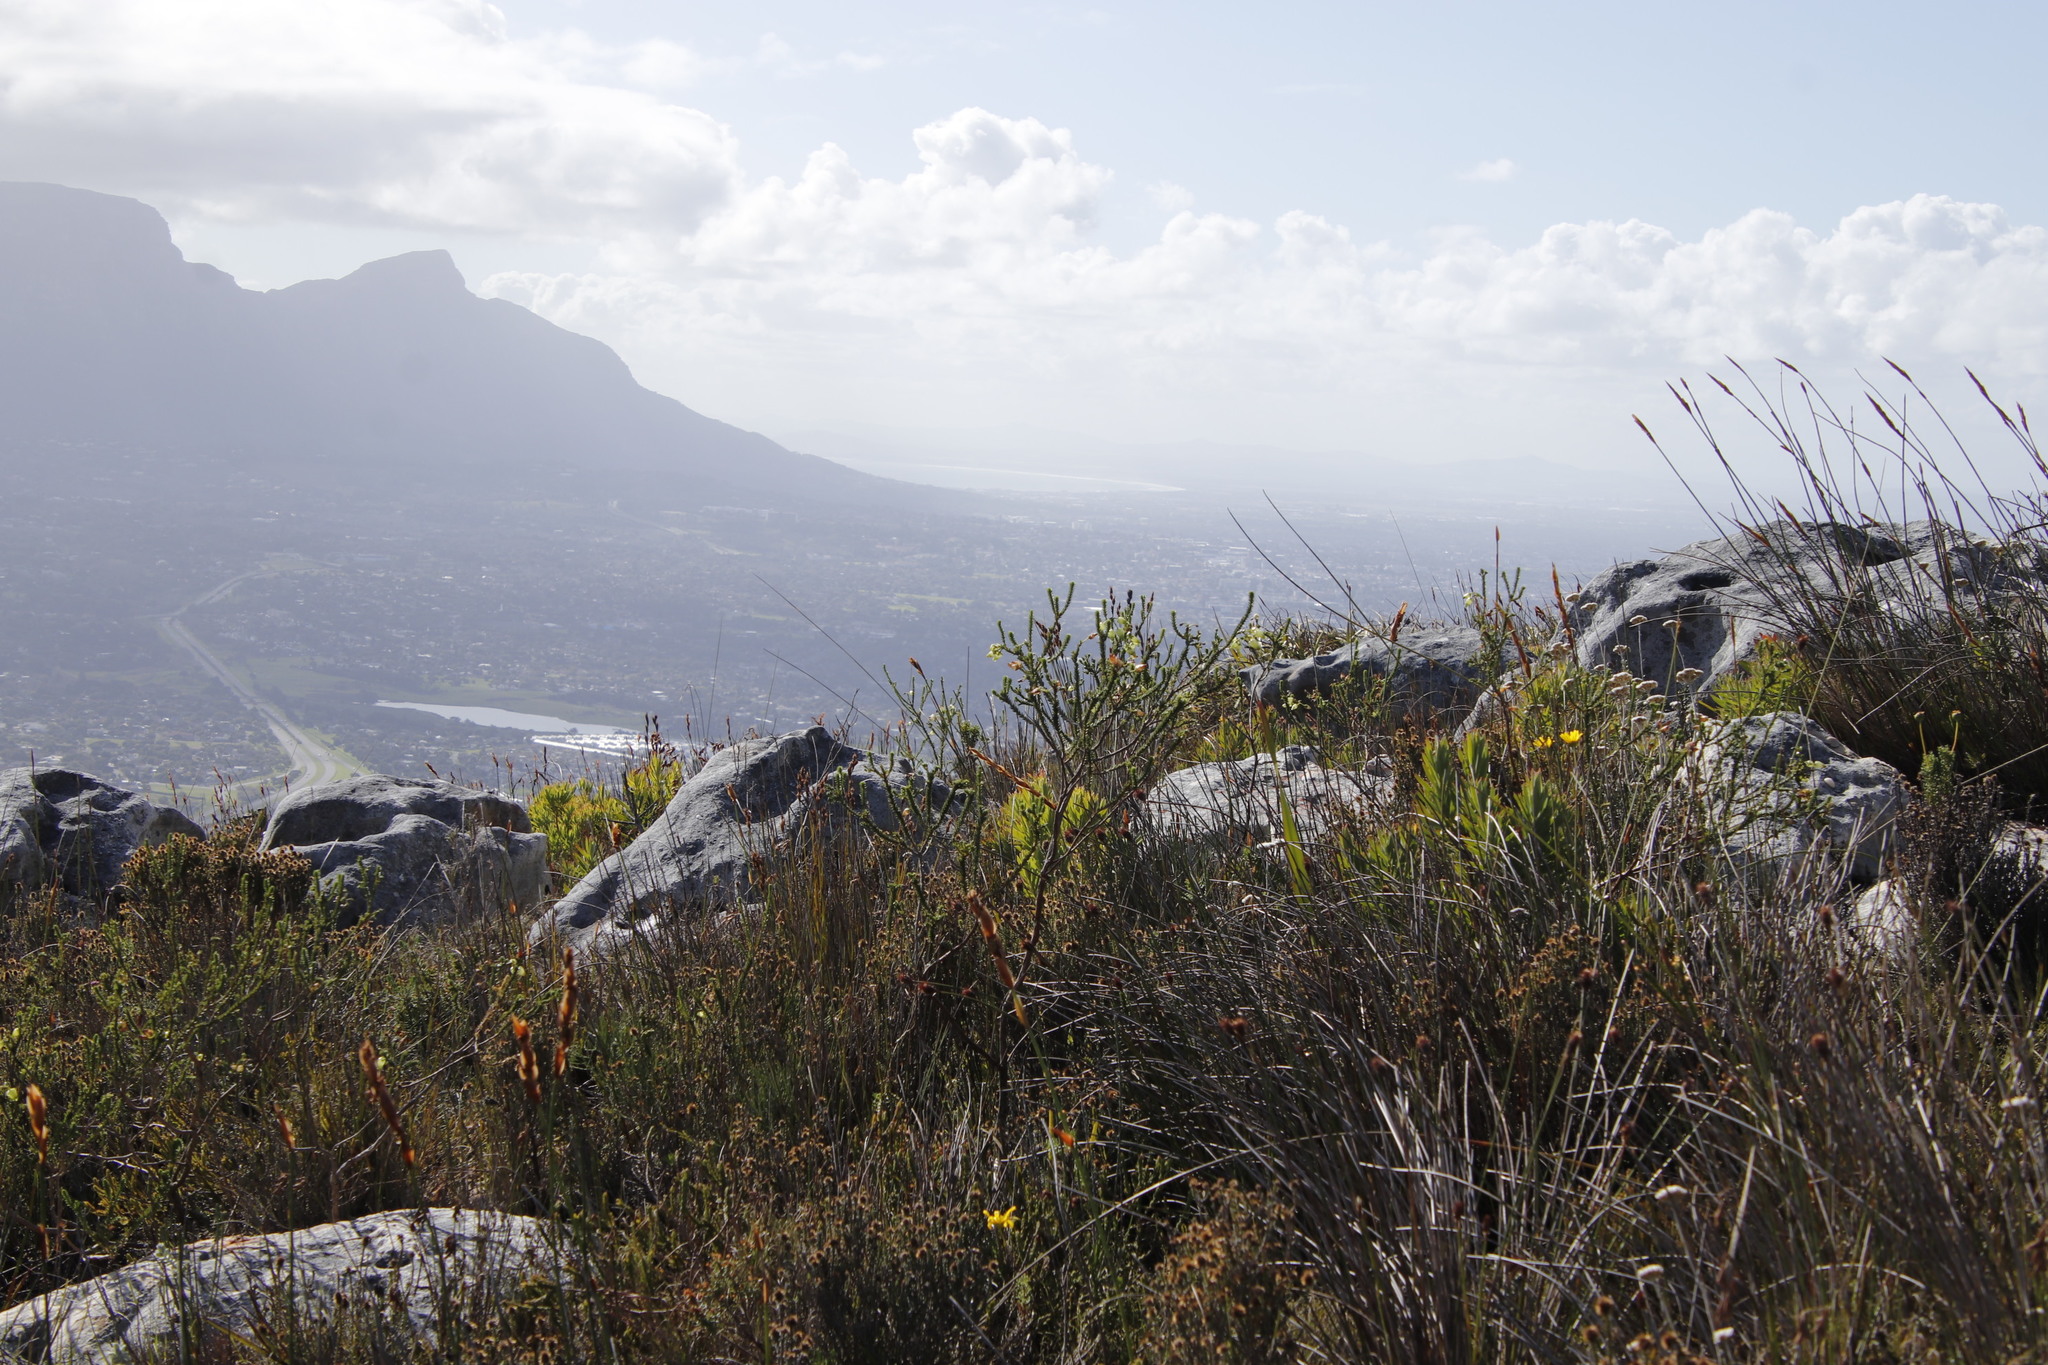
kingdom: Plantae
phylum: Tracheophyta
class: Magnoliopsida
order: Ericales
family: Ericaceae
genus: Erica
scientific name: Erica urna-viridis
